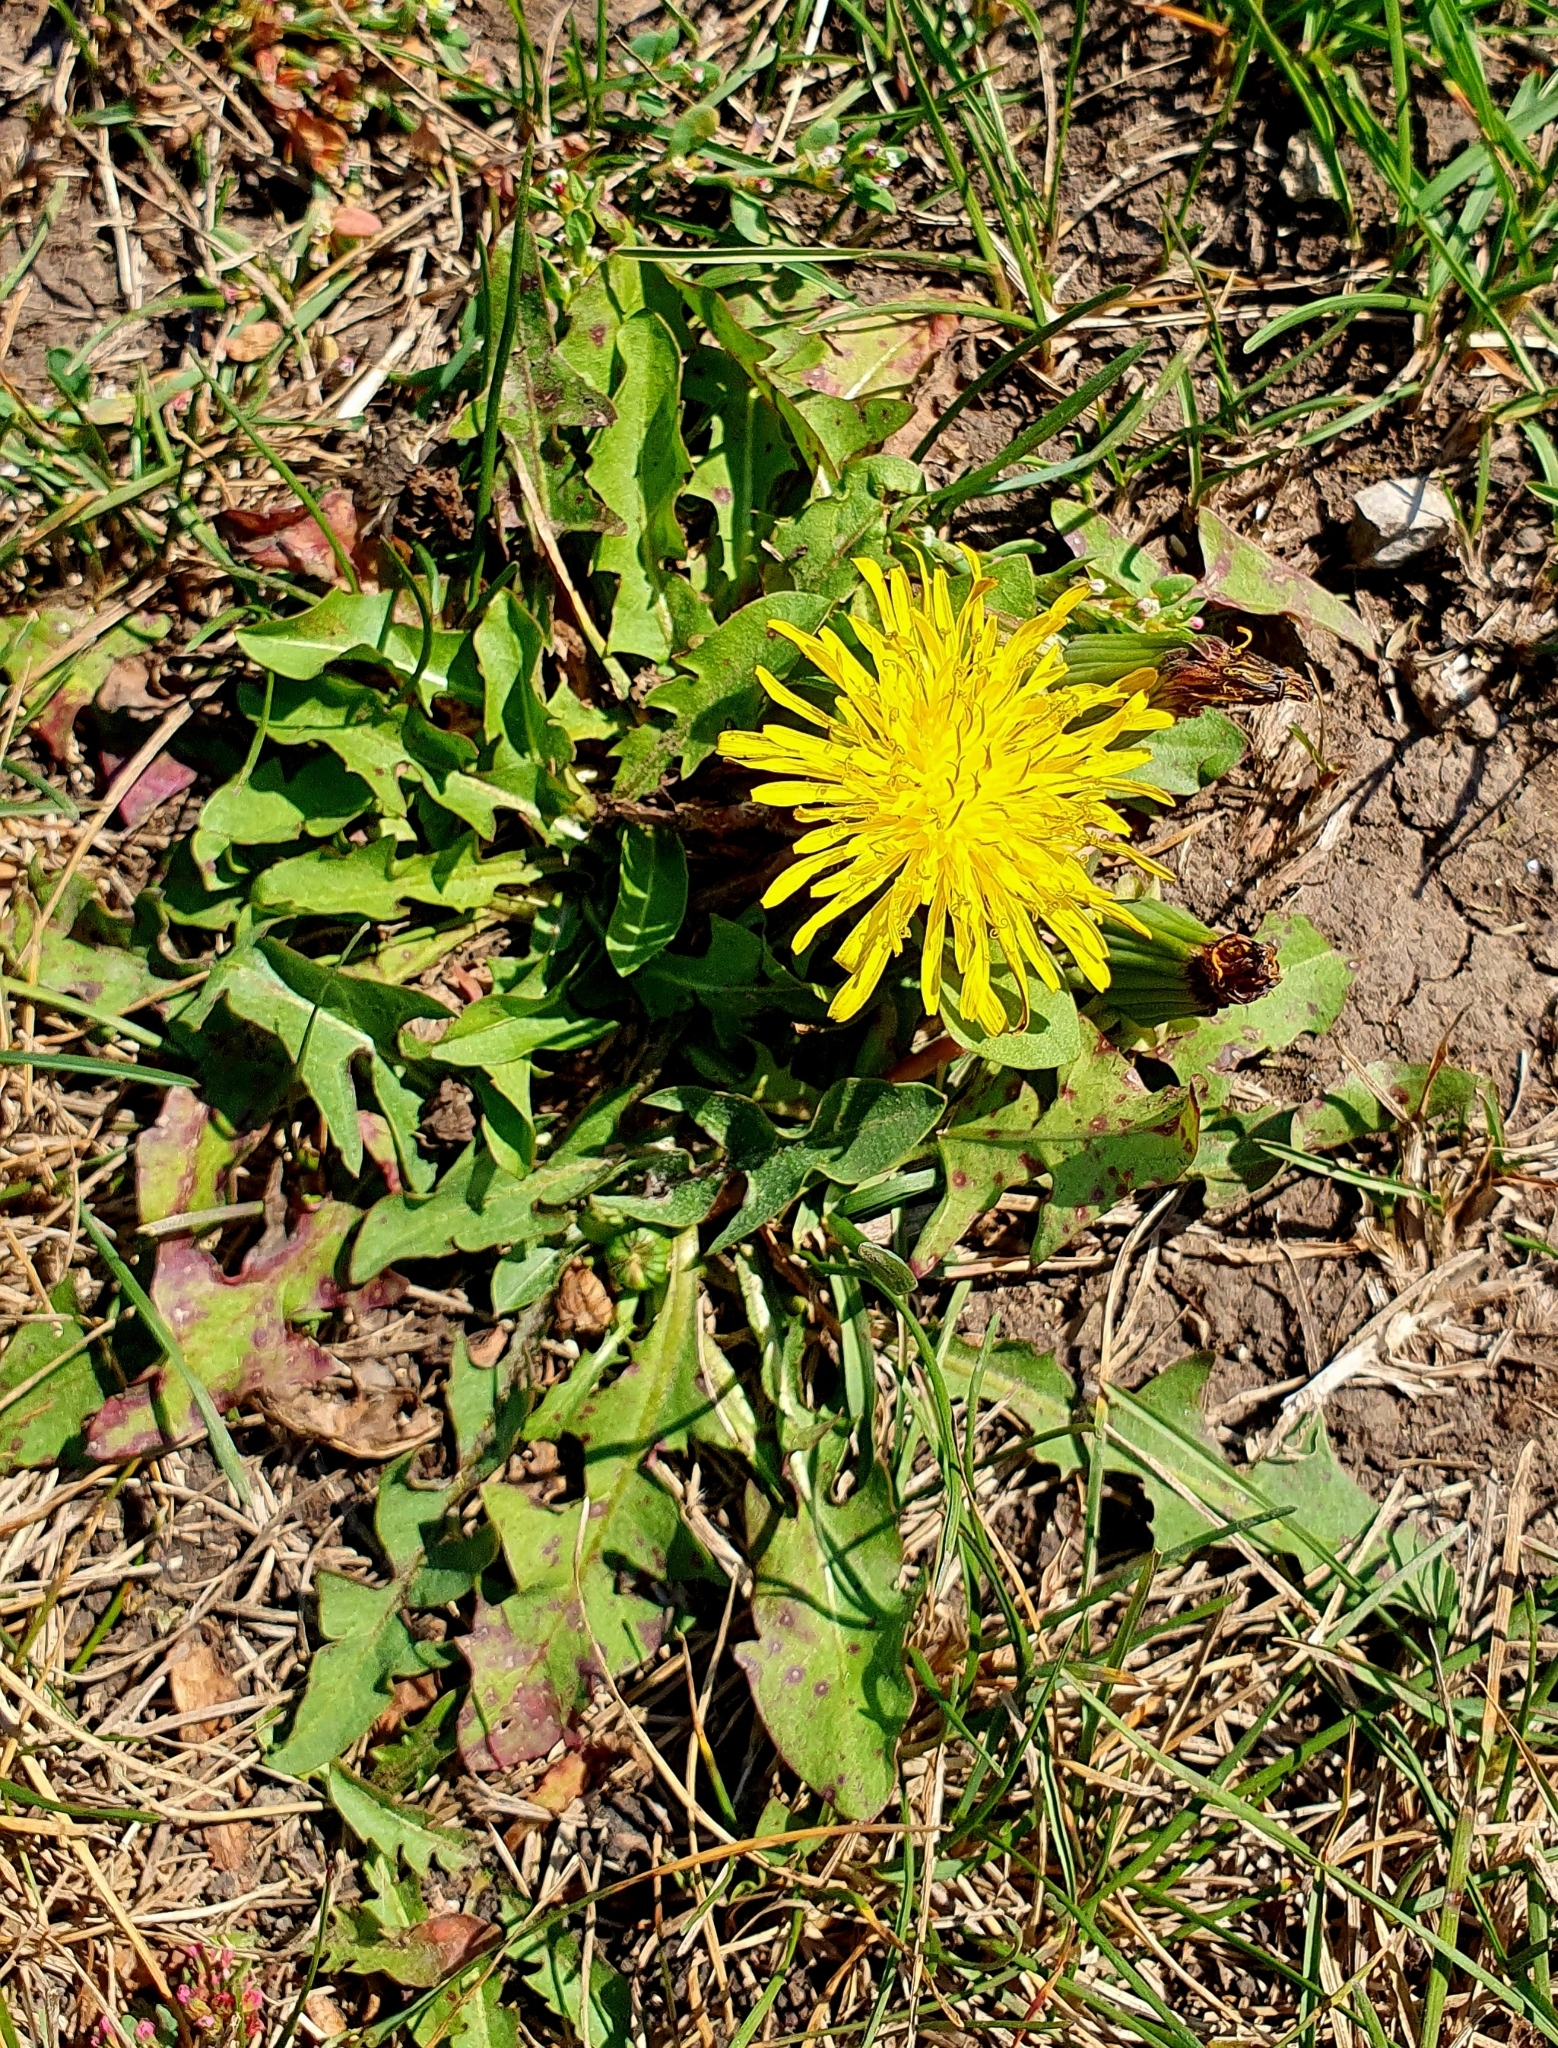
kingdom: Plantae
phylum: Tracheophyta
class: Magnoliopsida
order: Asterales
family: Asteraceae
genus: Taraxacum
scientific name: Taraxacum officinale
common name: Common dandelion
